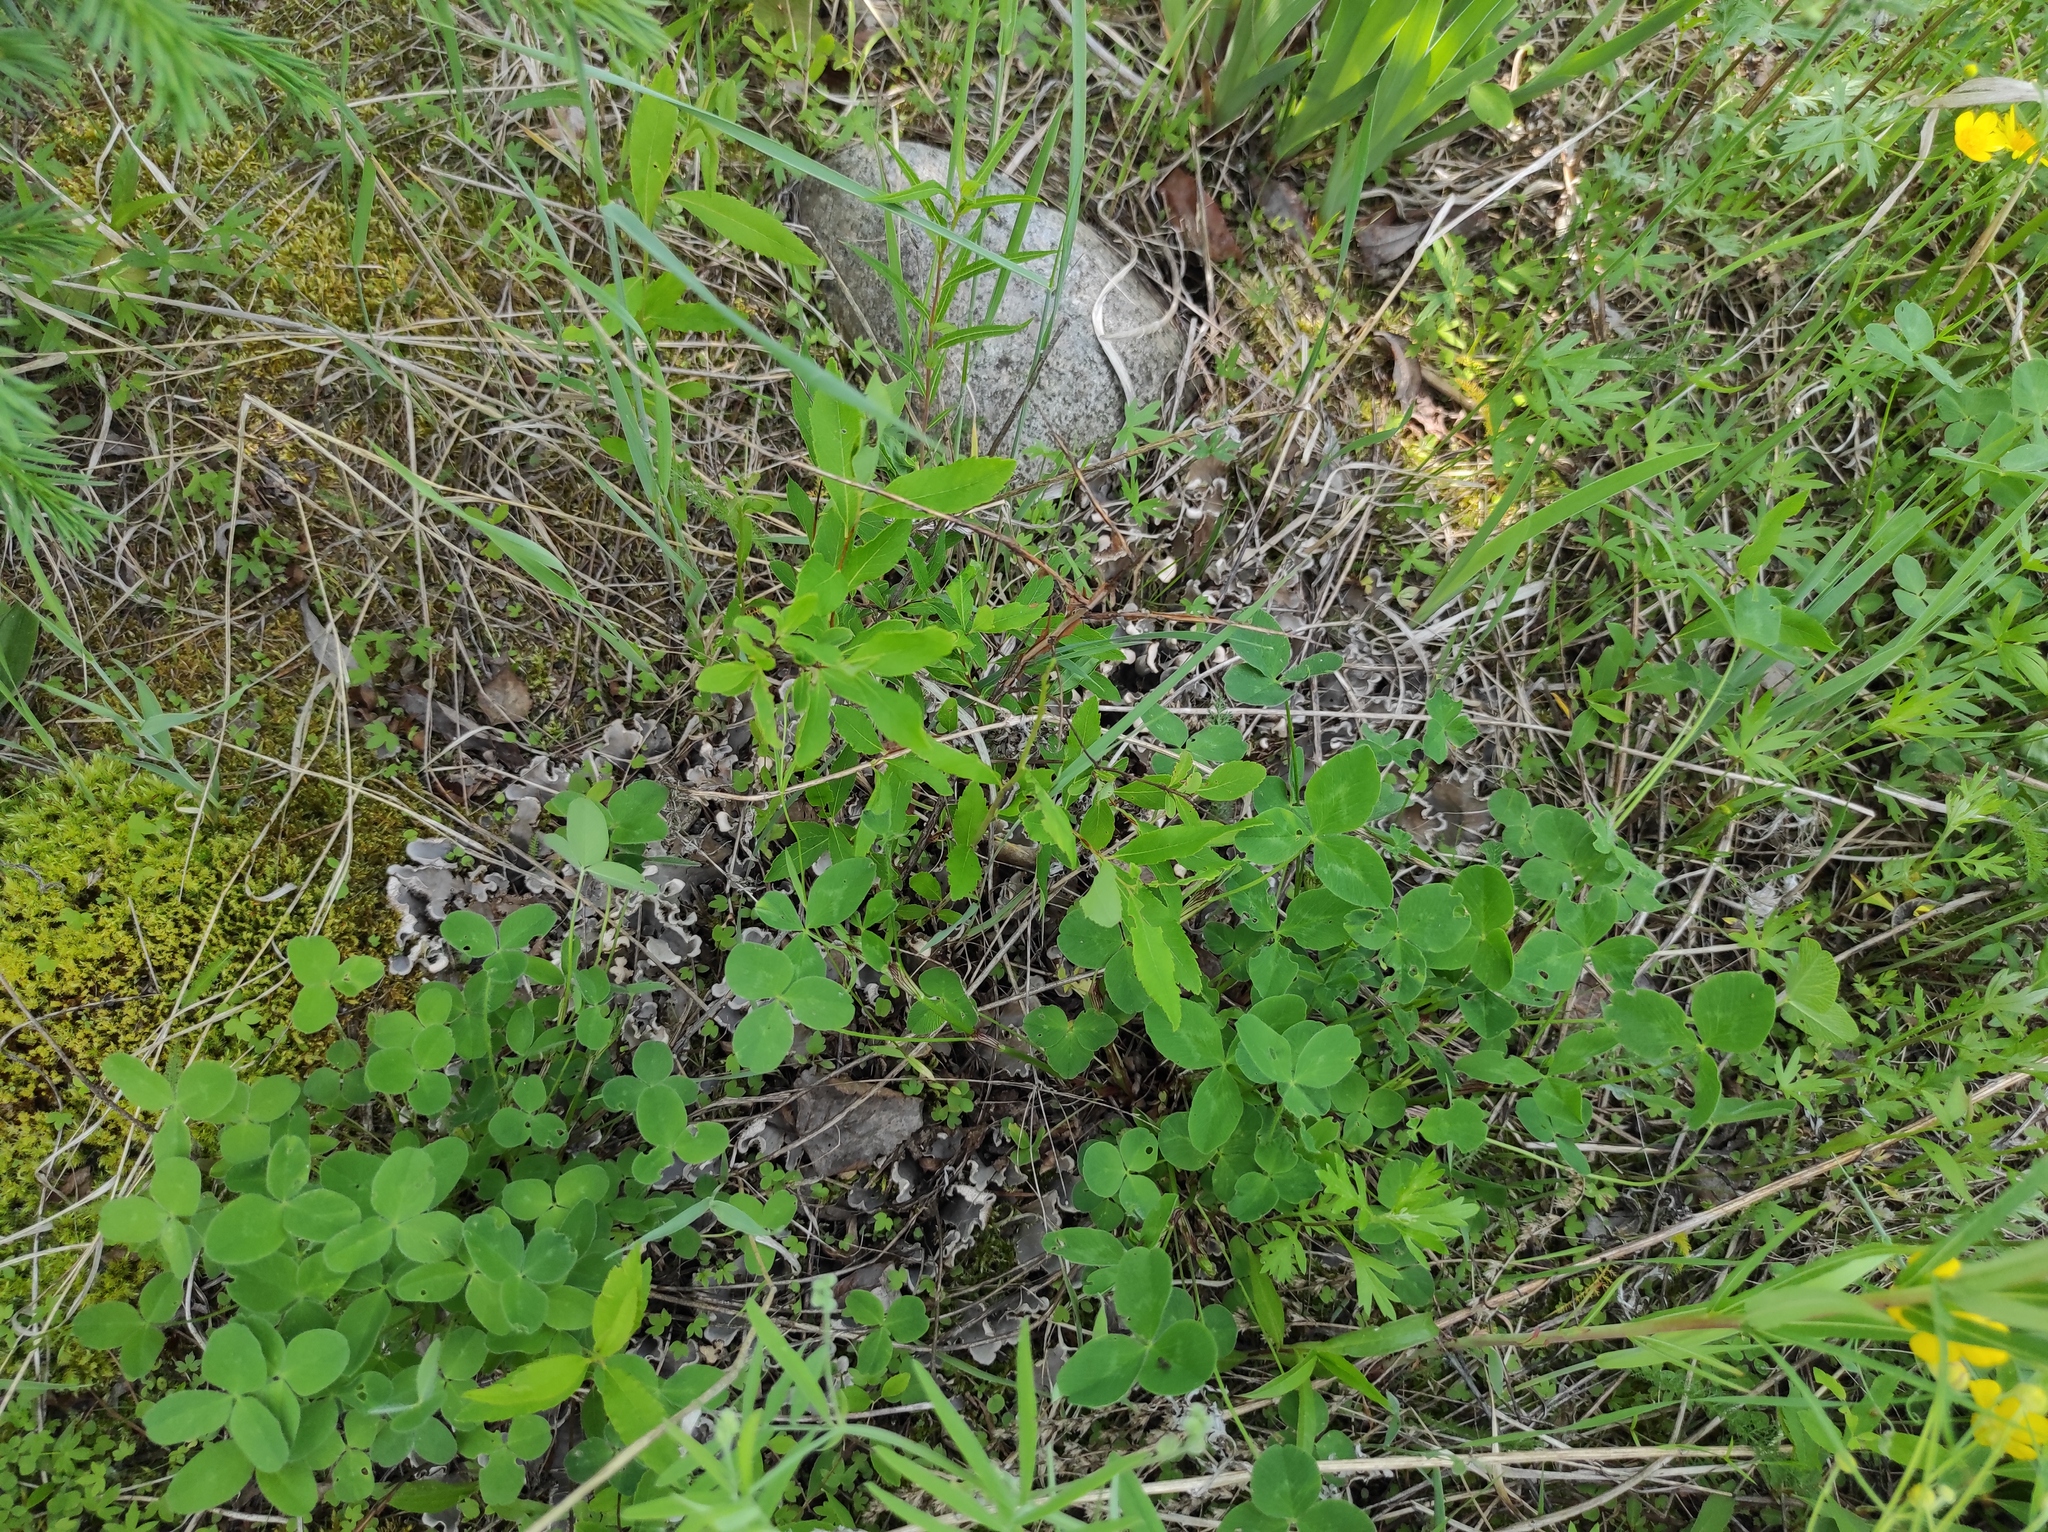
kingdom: Plantae
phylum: Tracheophyta
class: Magnoliopsida
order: Fabales
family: Fabaceae
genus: Trifolium
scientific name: Trifolium pratense
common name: Red clover
